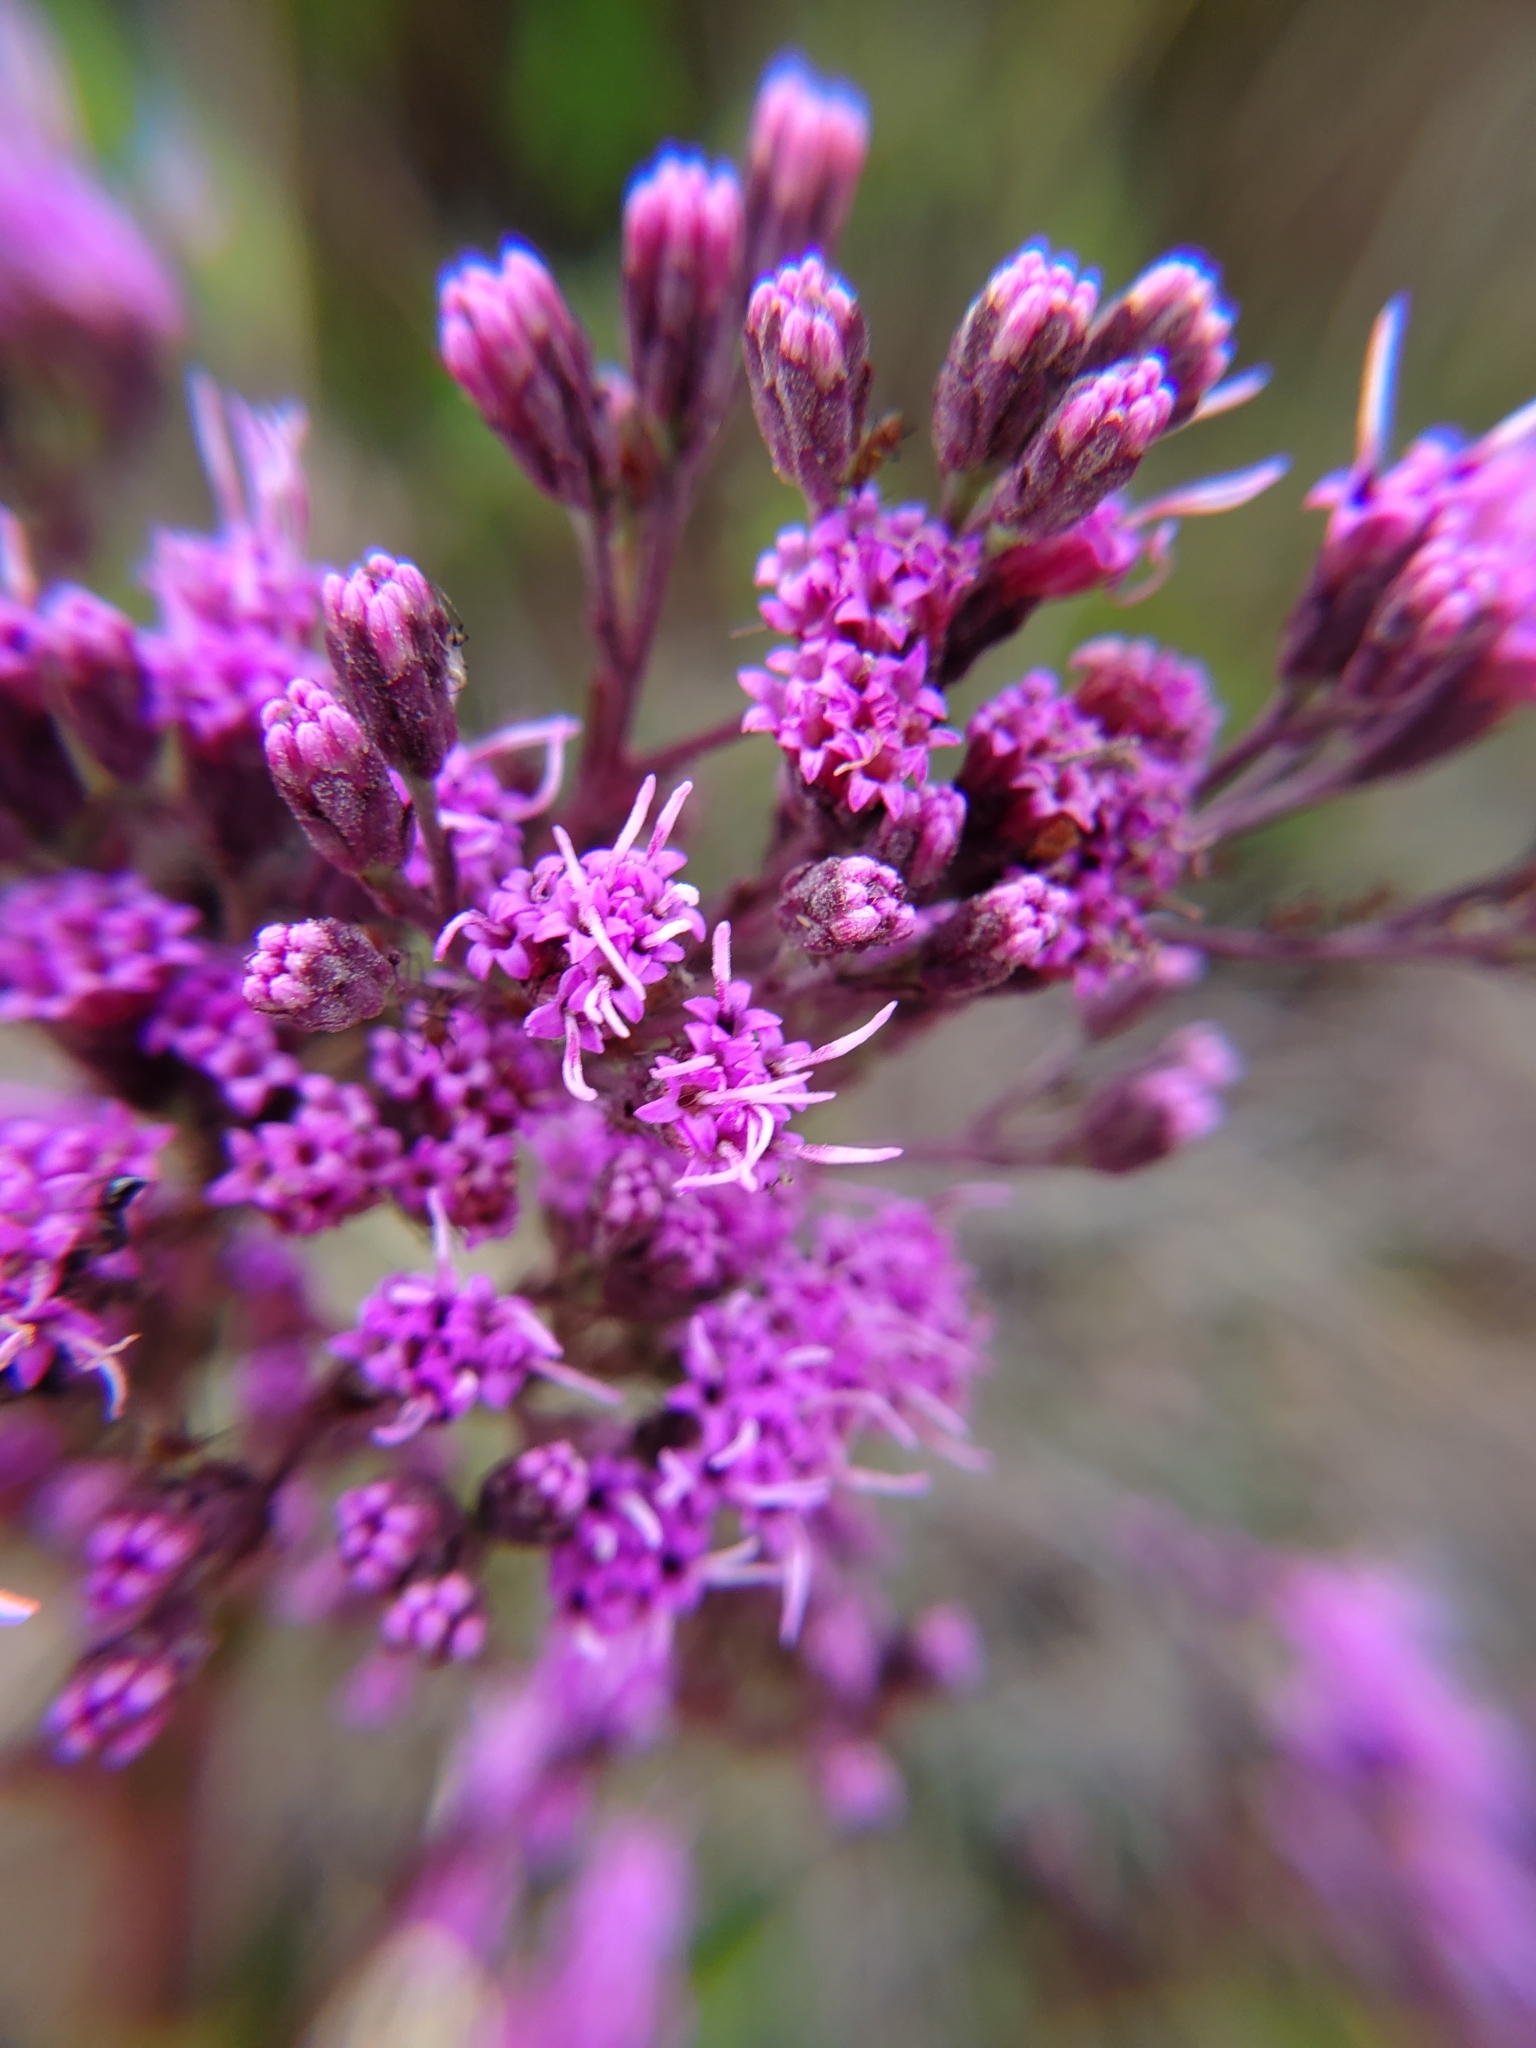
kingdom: Plantae
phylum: Tracheophyta
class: Magnoliopsida
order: Asterales
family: Asteraceae
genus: Carphephorus
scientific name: Carphephorus odoratissimus
